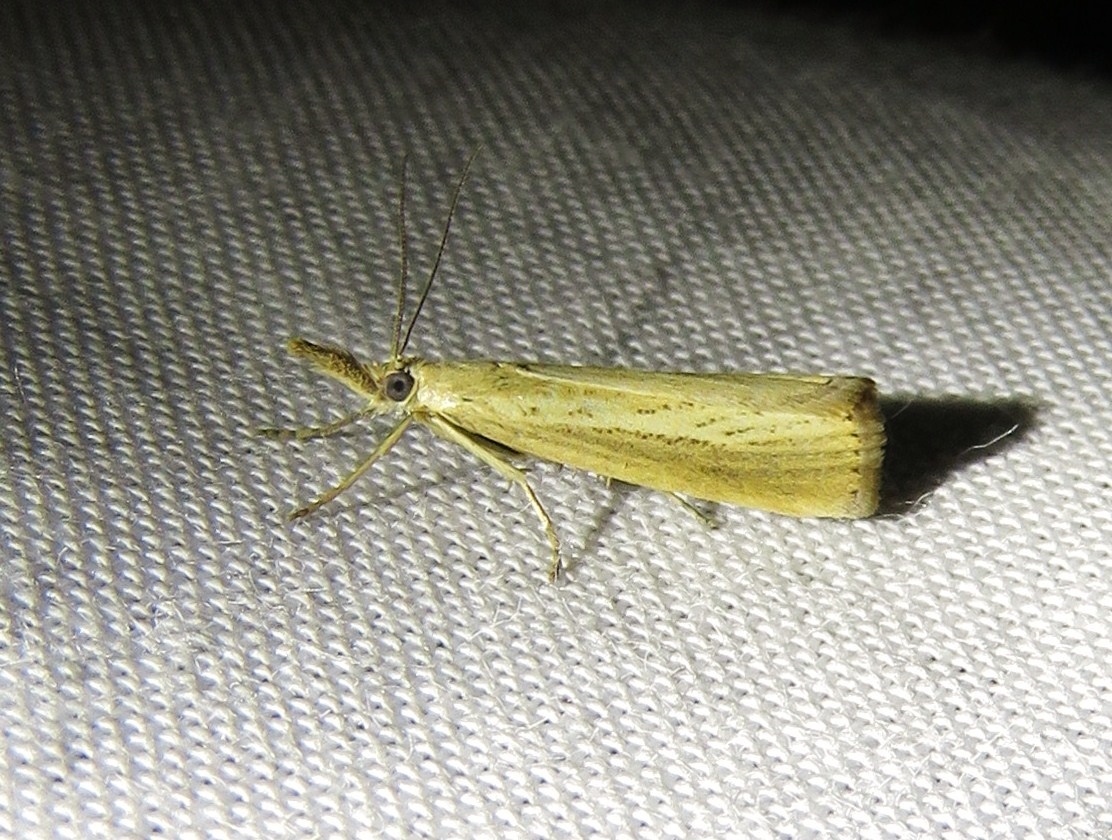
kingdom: Animalia
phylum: Arthropoda
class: Insecta
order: Lepidoptera
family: Crambidae
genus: Agriphila
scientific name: Agriphila straminella
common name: Straw grass-veneer
